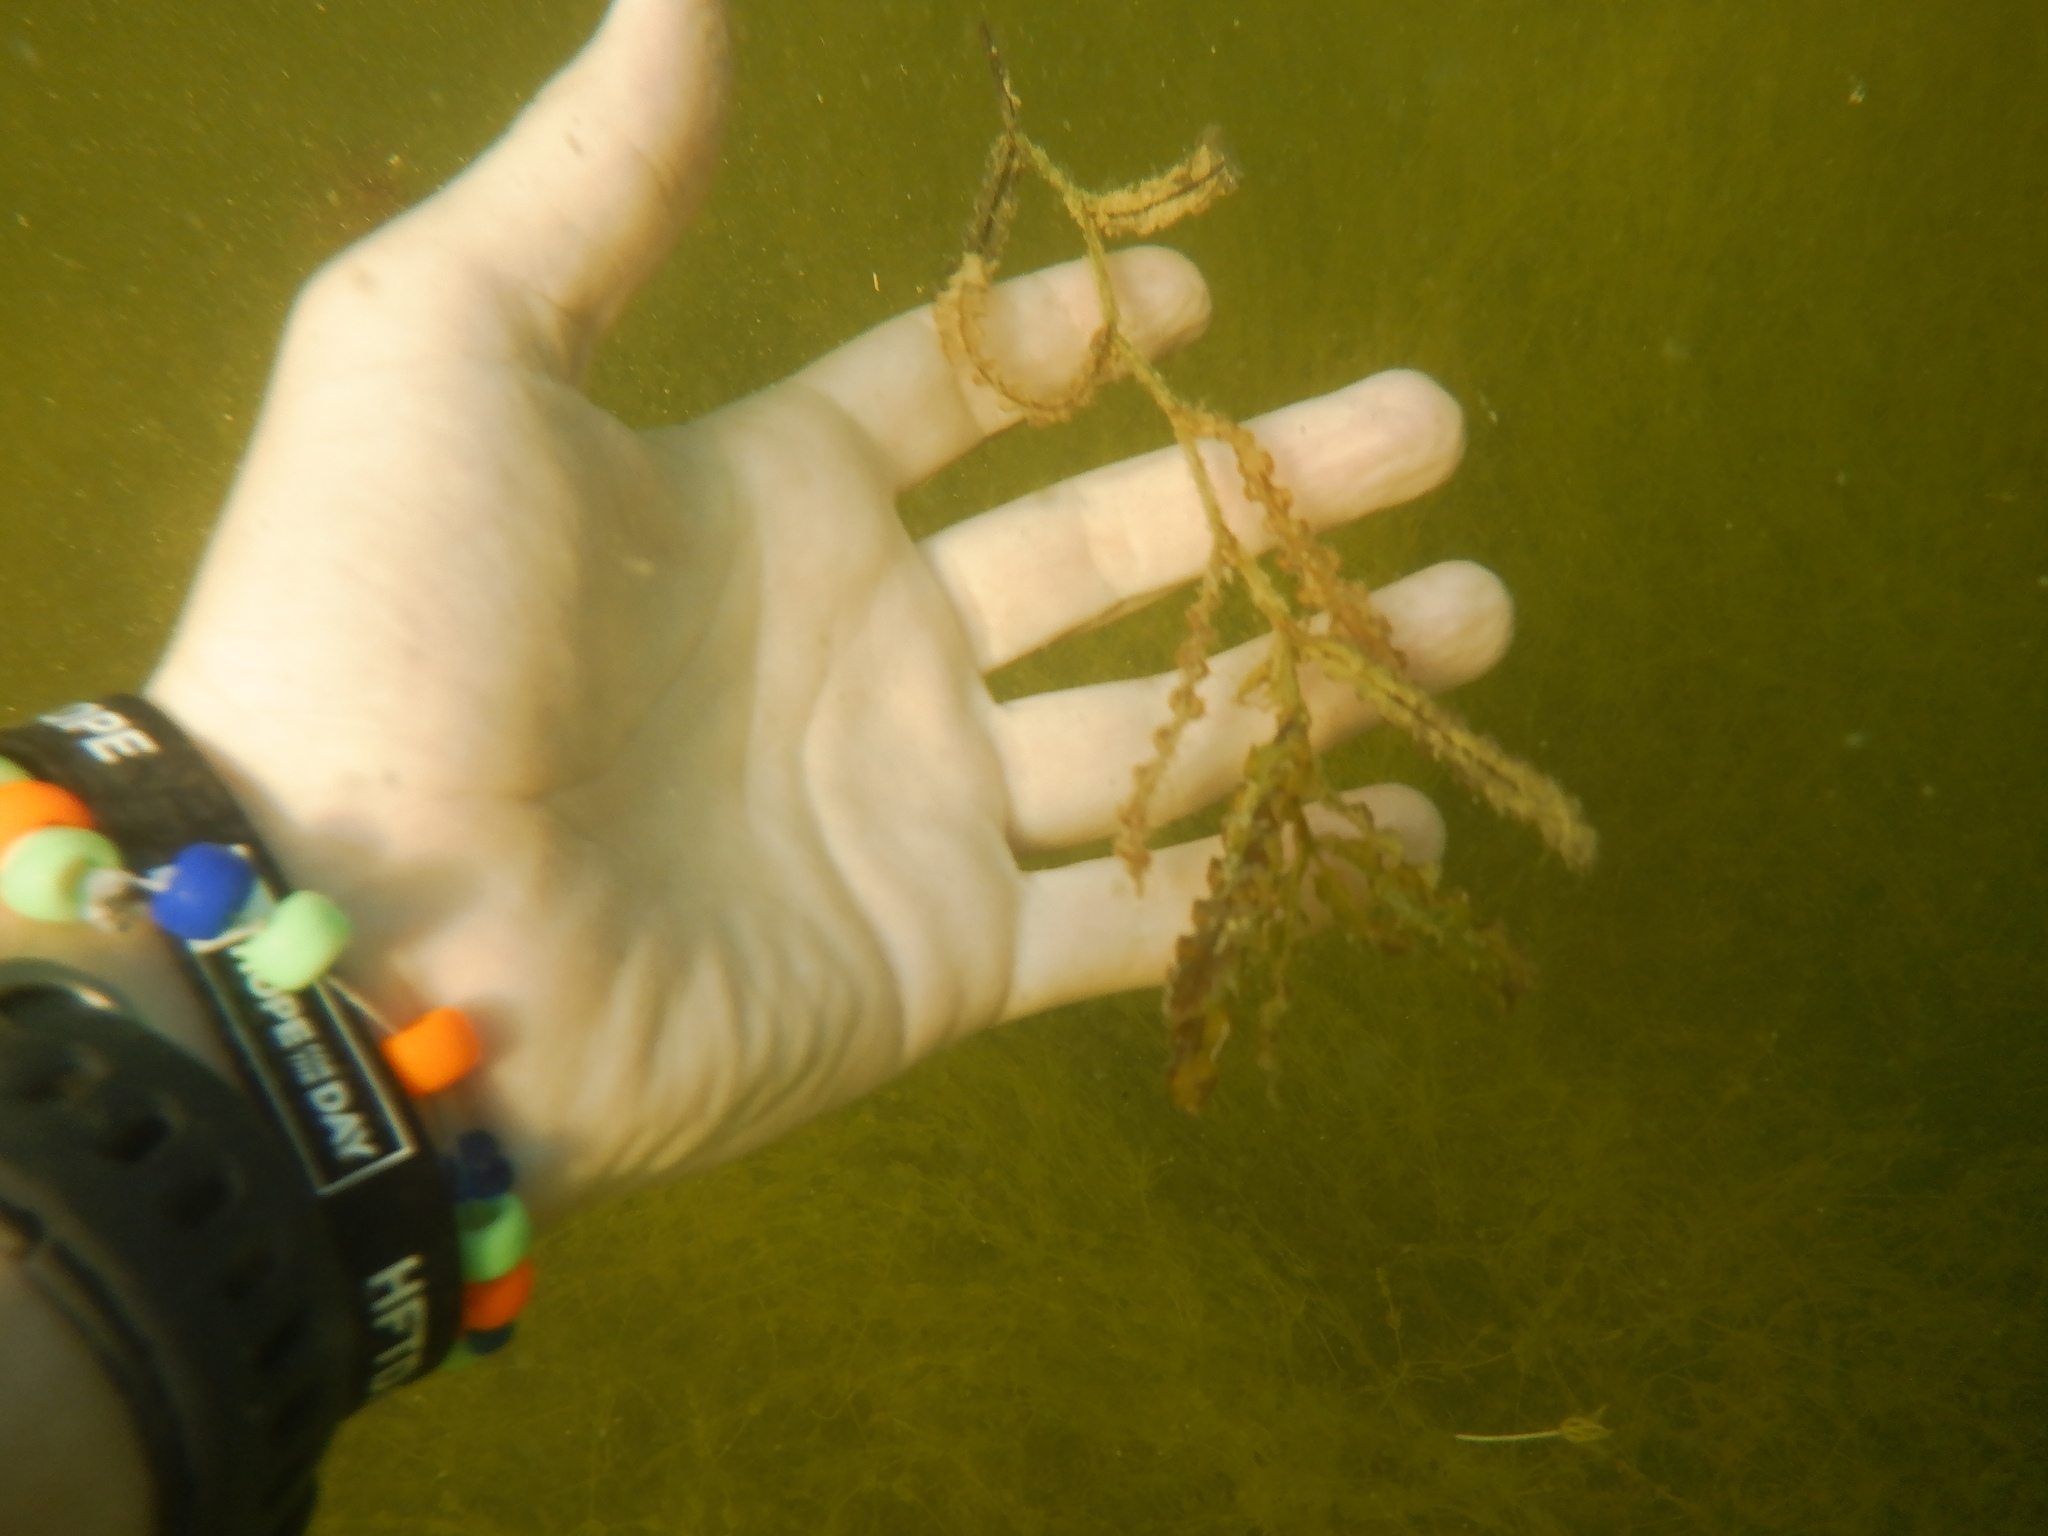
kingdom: Plantae
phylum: Tracheophyta
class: Liliopsida
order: Alismatales
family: Potamogetonaceae
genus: Potamogeton
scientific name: Potamogeton crispus
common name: Curled pondweed
